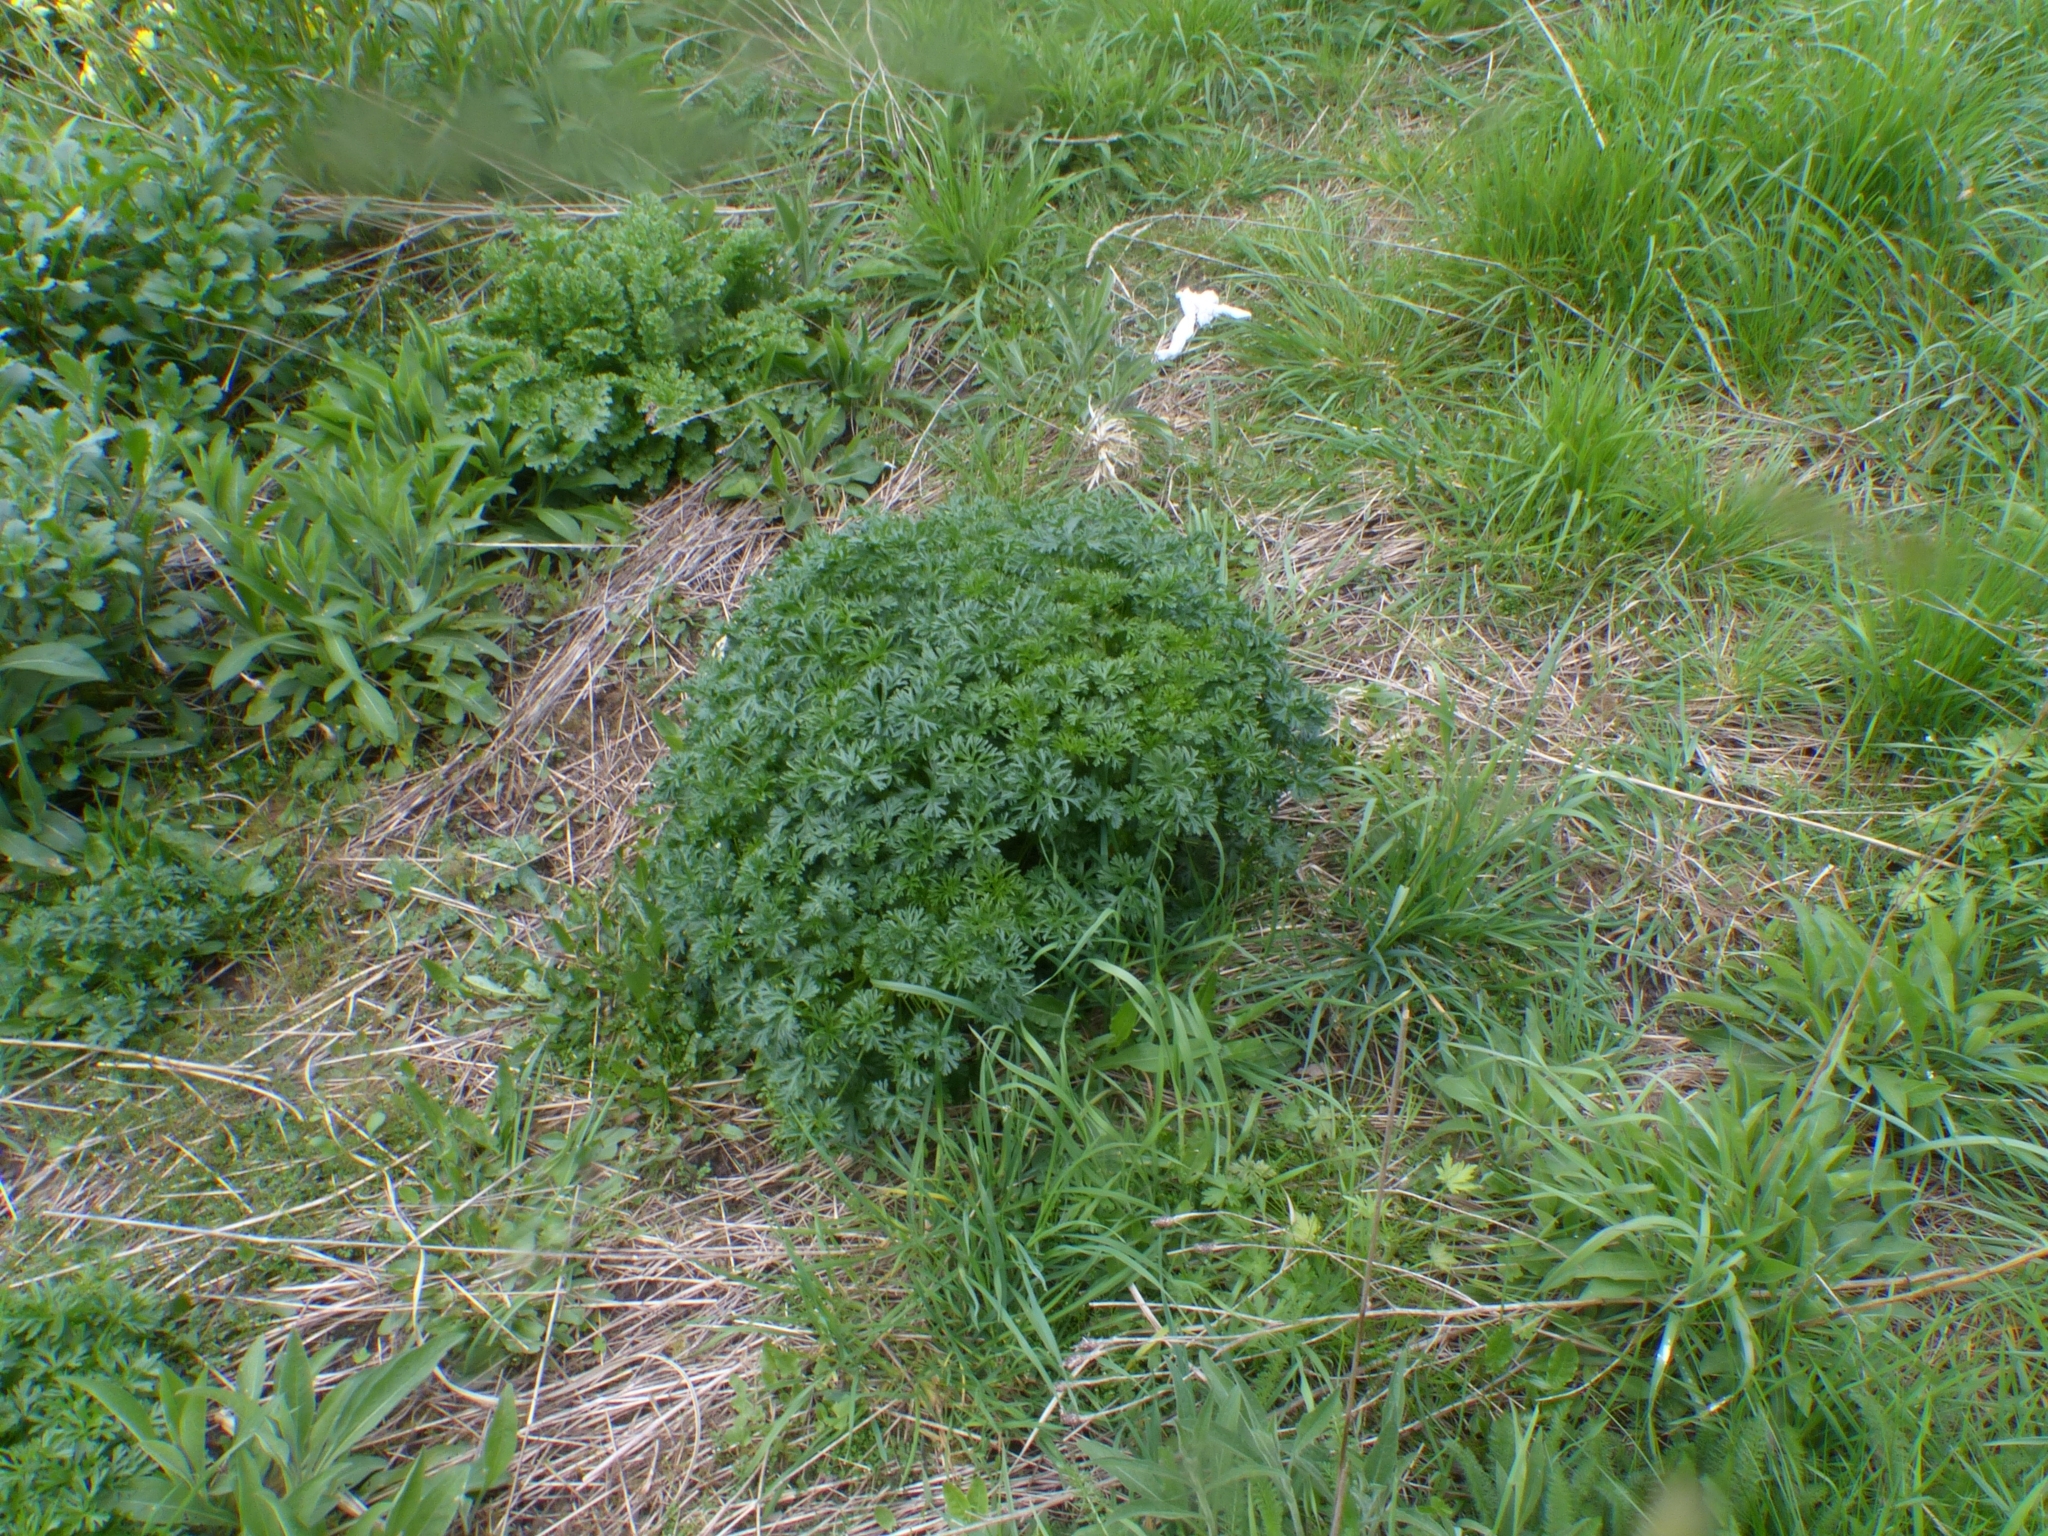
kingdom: Plantae
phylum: Tracheophyta
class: Magnoliopsida
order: Malvales
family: Malvaceae
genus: Malva
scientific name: Malva moschata
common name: Musk mallow
